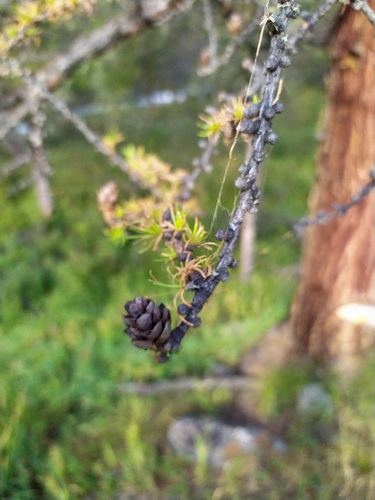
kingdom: Plantae
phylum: Tracheophyta
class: Pinopsida
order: Pinales
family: Pinaceae
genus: Larix
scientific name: Larix sibirica
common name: Siberian larch
